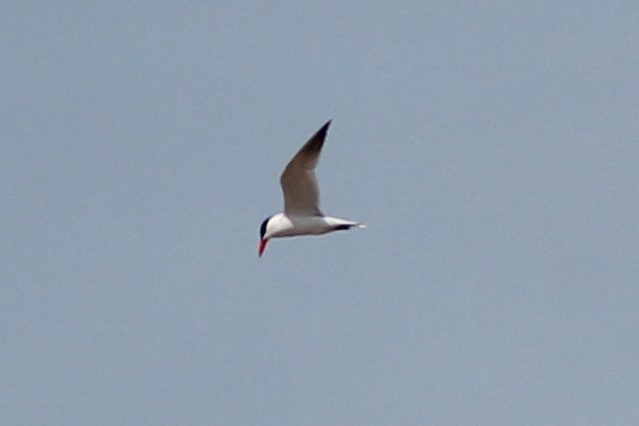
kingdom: Animalia
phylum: Chordata
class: Aves
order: Charadriiformes
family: Laridae
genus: Hydroprogne
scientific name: Hydroprogne caspia
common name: Caspian tern
